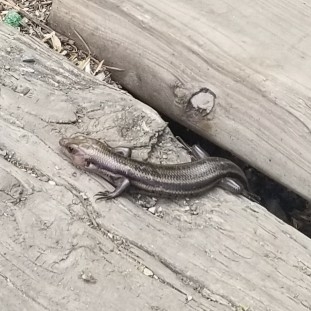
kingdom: Animalia
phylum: Chordata
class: Squamata
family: Scincidae
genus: Plestiodon
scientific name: Plestiodon fasciatus
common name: Five-lined skink
